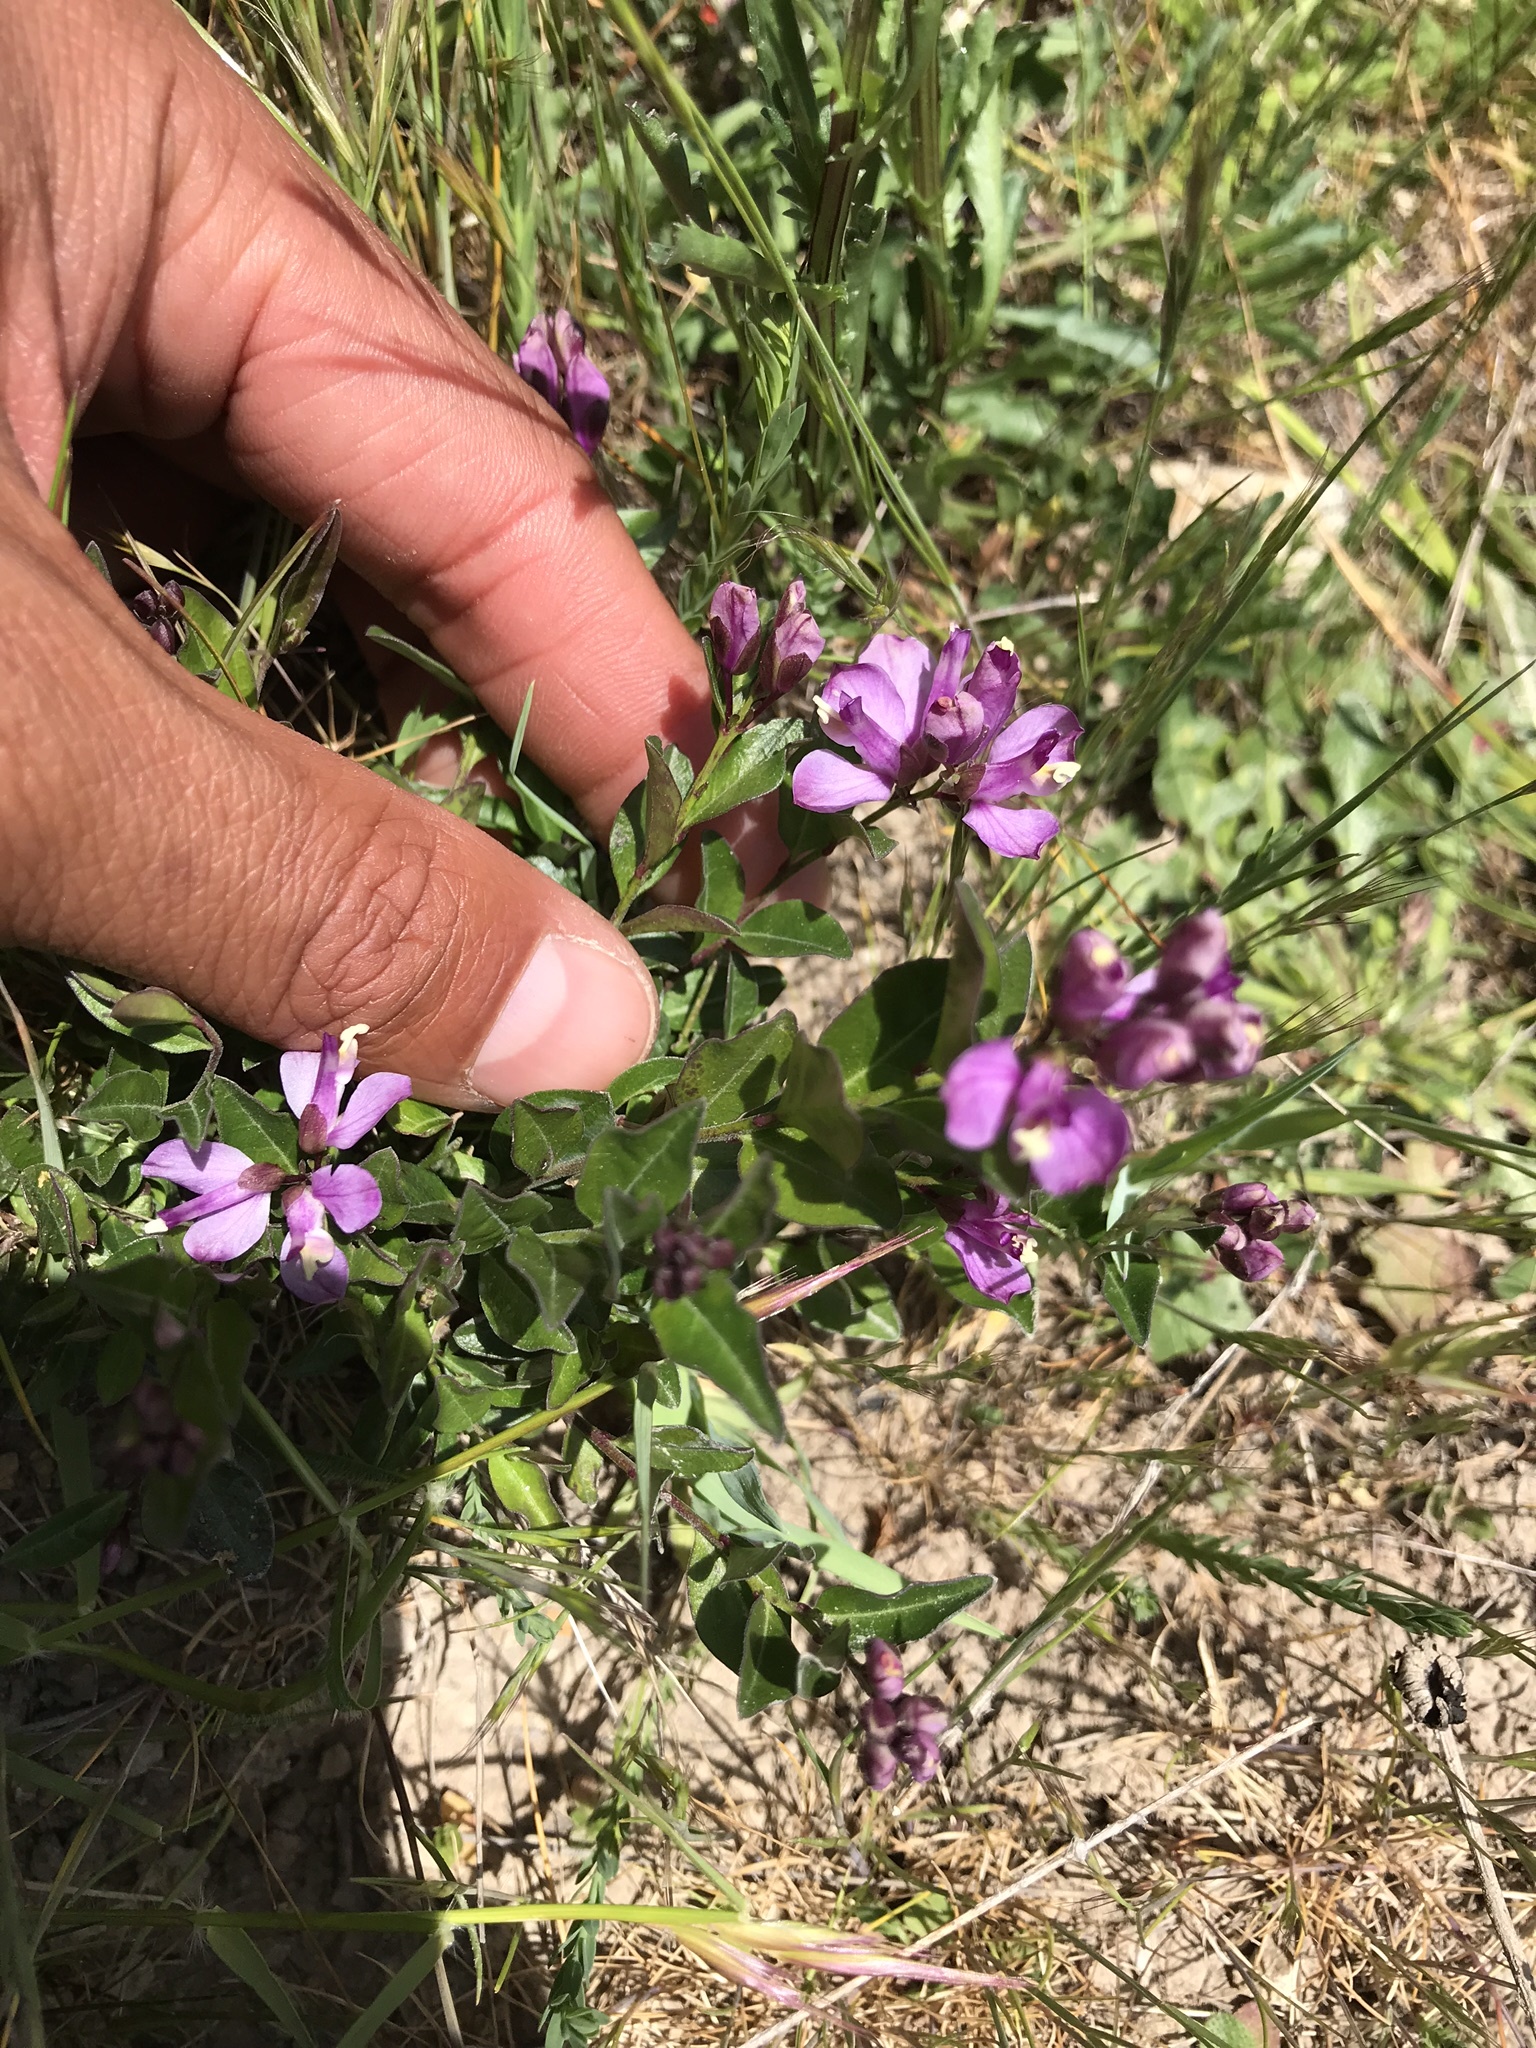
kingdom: Plantae
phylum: Tracheophyta
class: Magnoliopsida
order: Fabales
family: Polygalaceae
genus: Rhinotropis
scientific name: Rhinotropis californica
